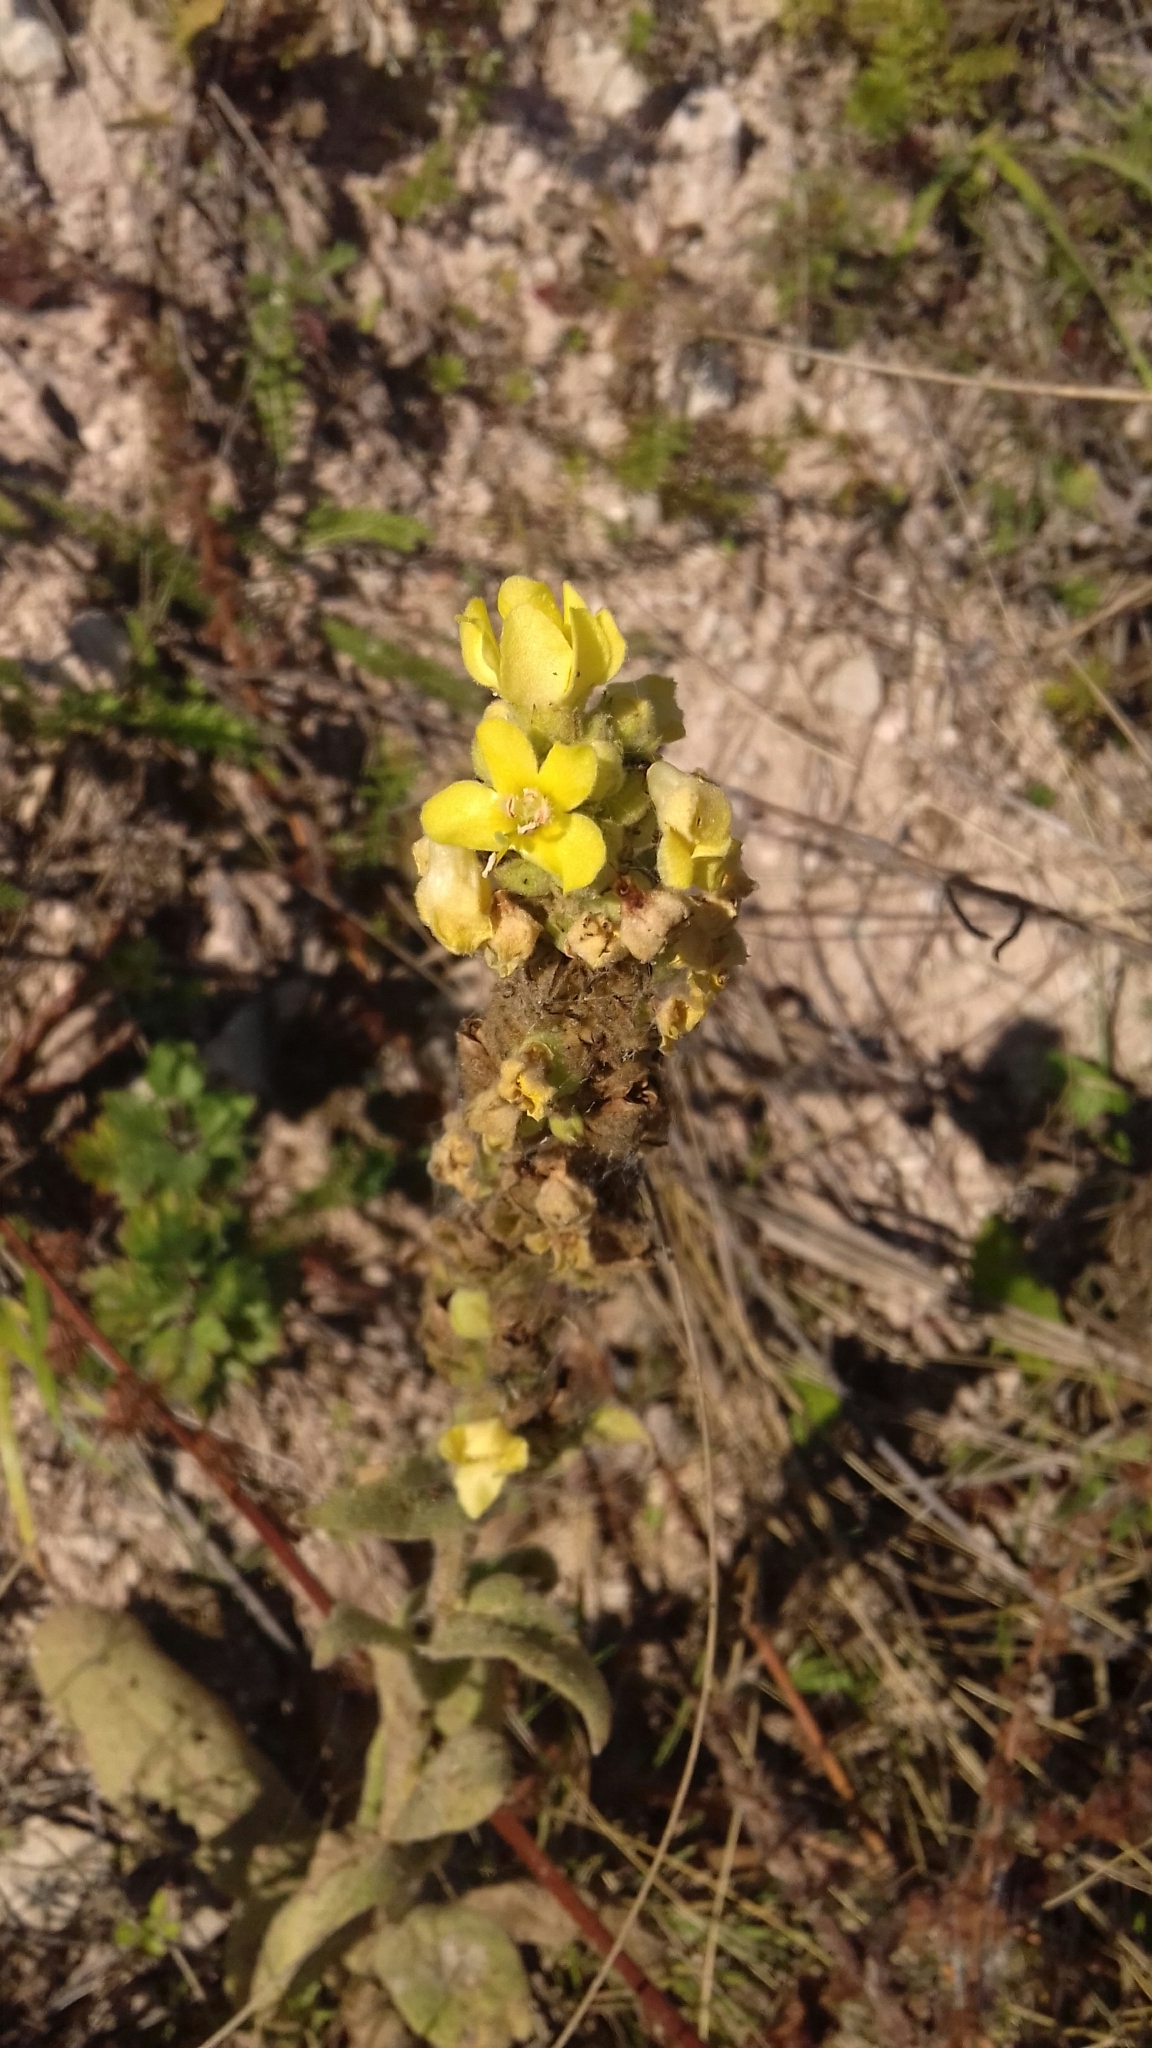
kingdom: Plantae
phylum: Tracheophyta
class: Magnoliopsida
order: Lamiales
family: Scrophulariaceae
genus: Verbascum
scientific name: Verbascum thapsus
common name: Common mullein
